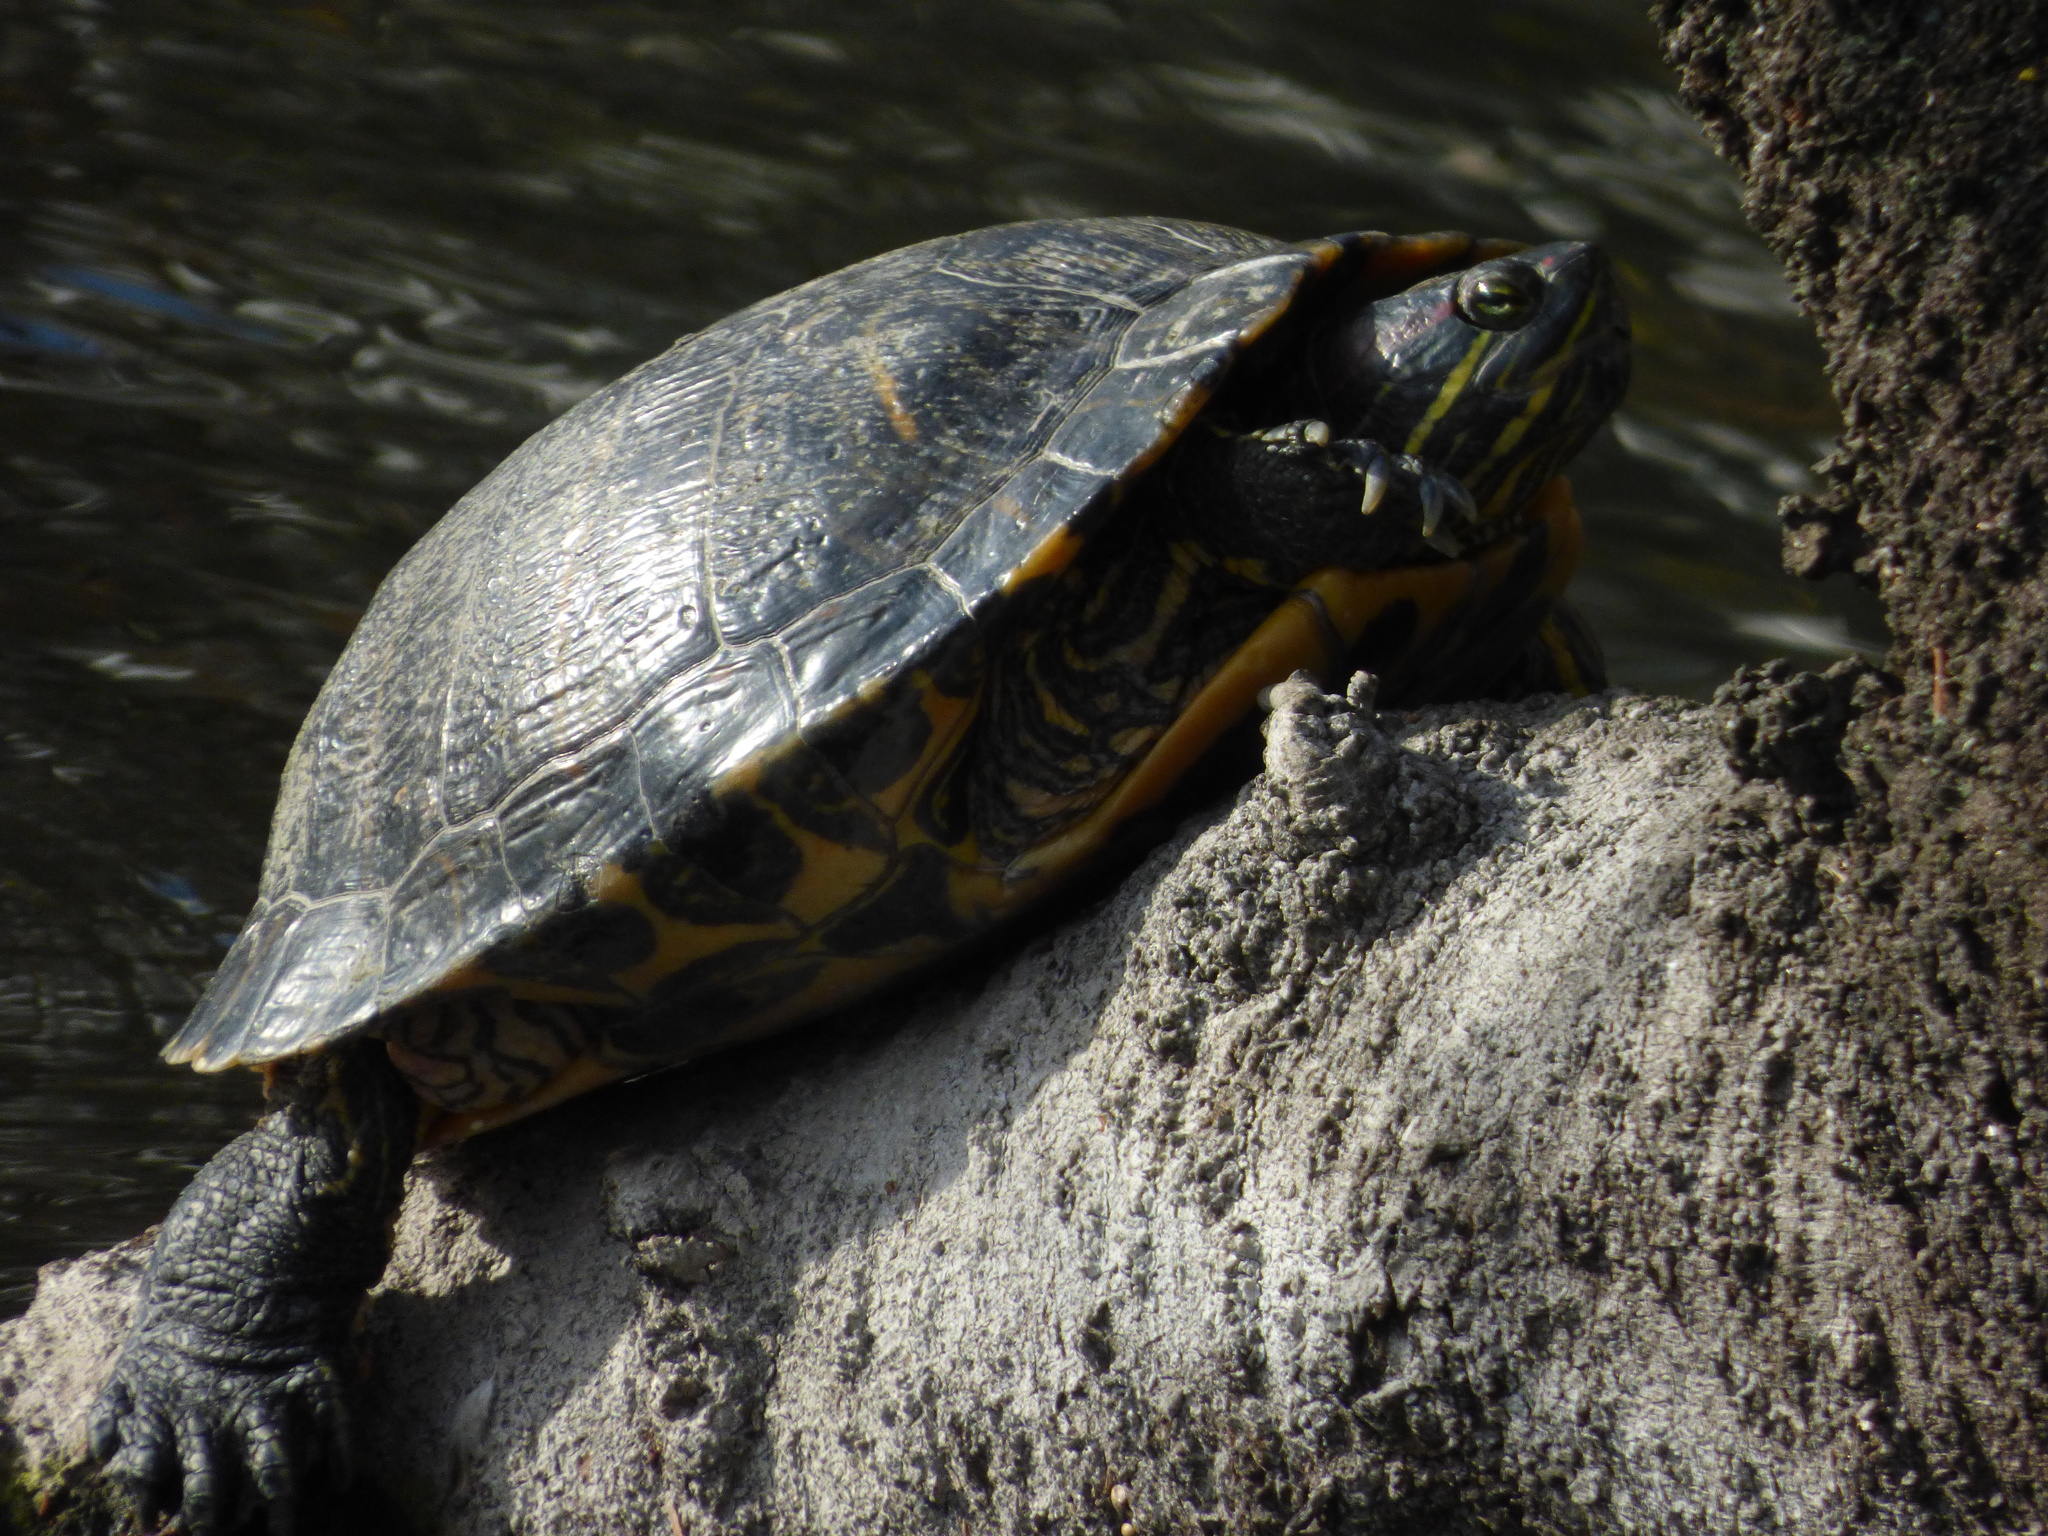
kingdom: Animalia
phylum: Chordata
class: Testudines
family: Emydidae
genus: Trachemys
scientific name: Trachemys scripta
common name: Slider
